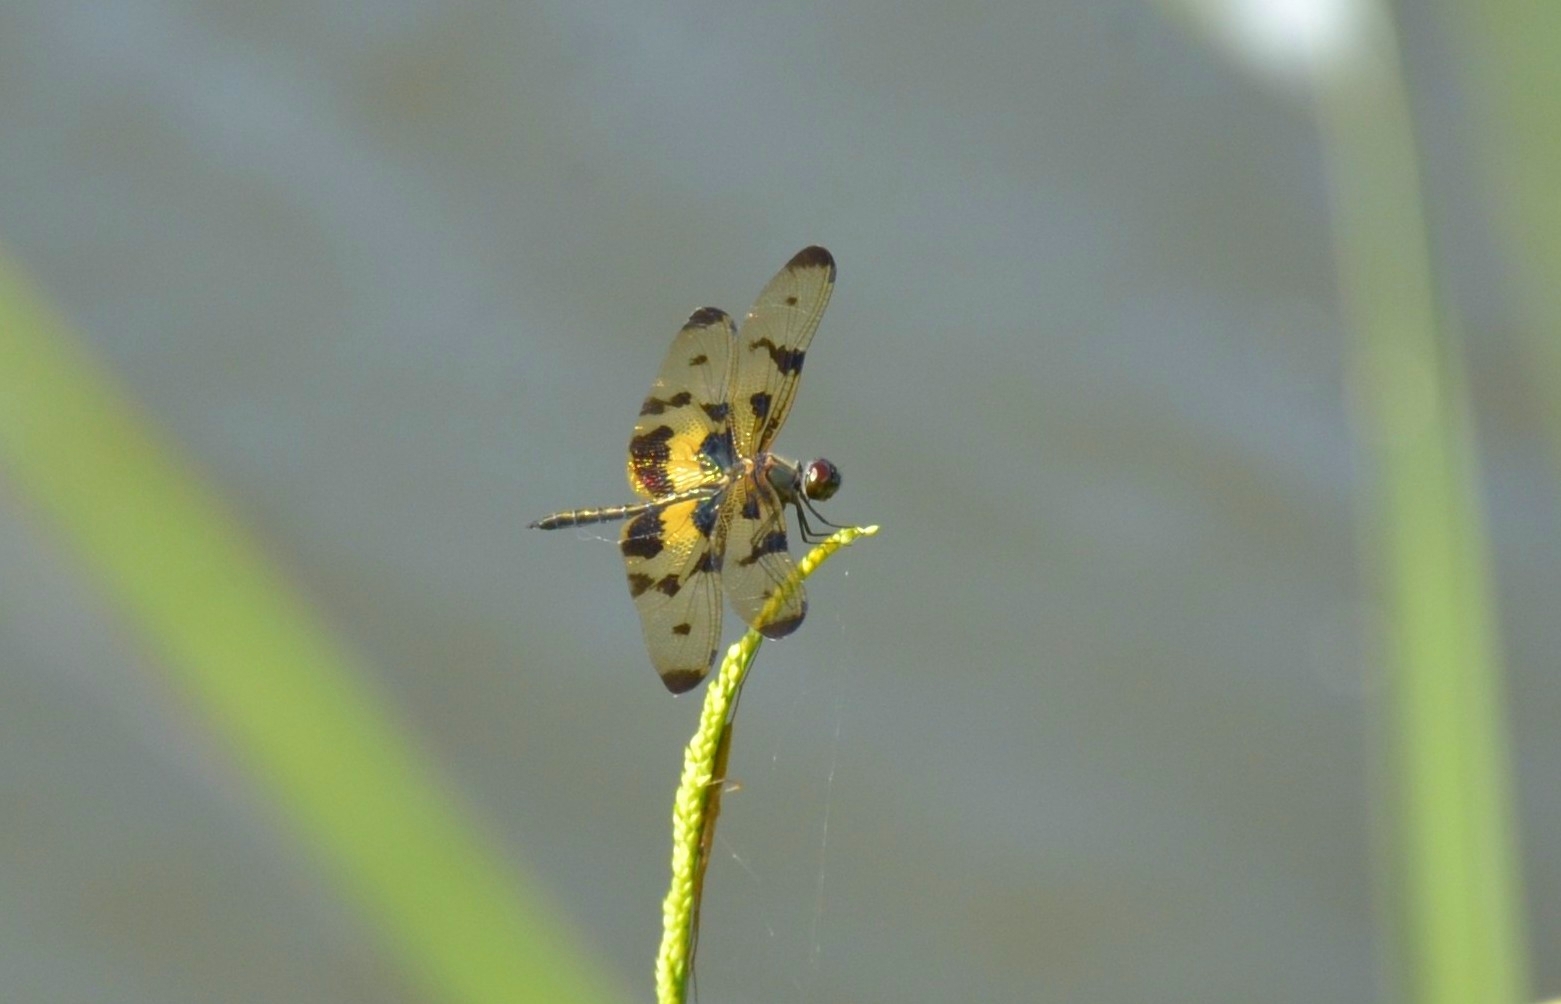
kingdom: Animalia
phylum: Arthropoda
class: Insecta
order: Odonata
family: Libellulidae
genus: Rhyothemis
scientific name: Rhyothemis variegata
